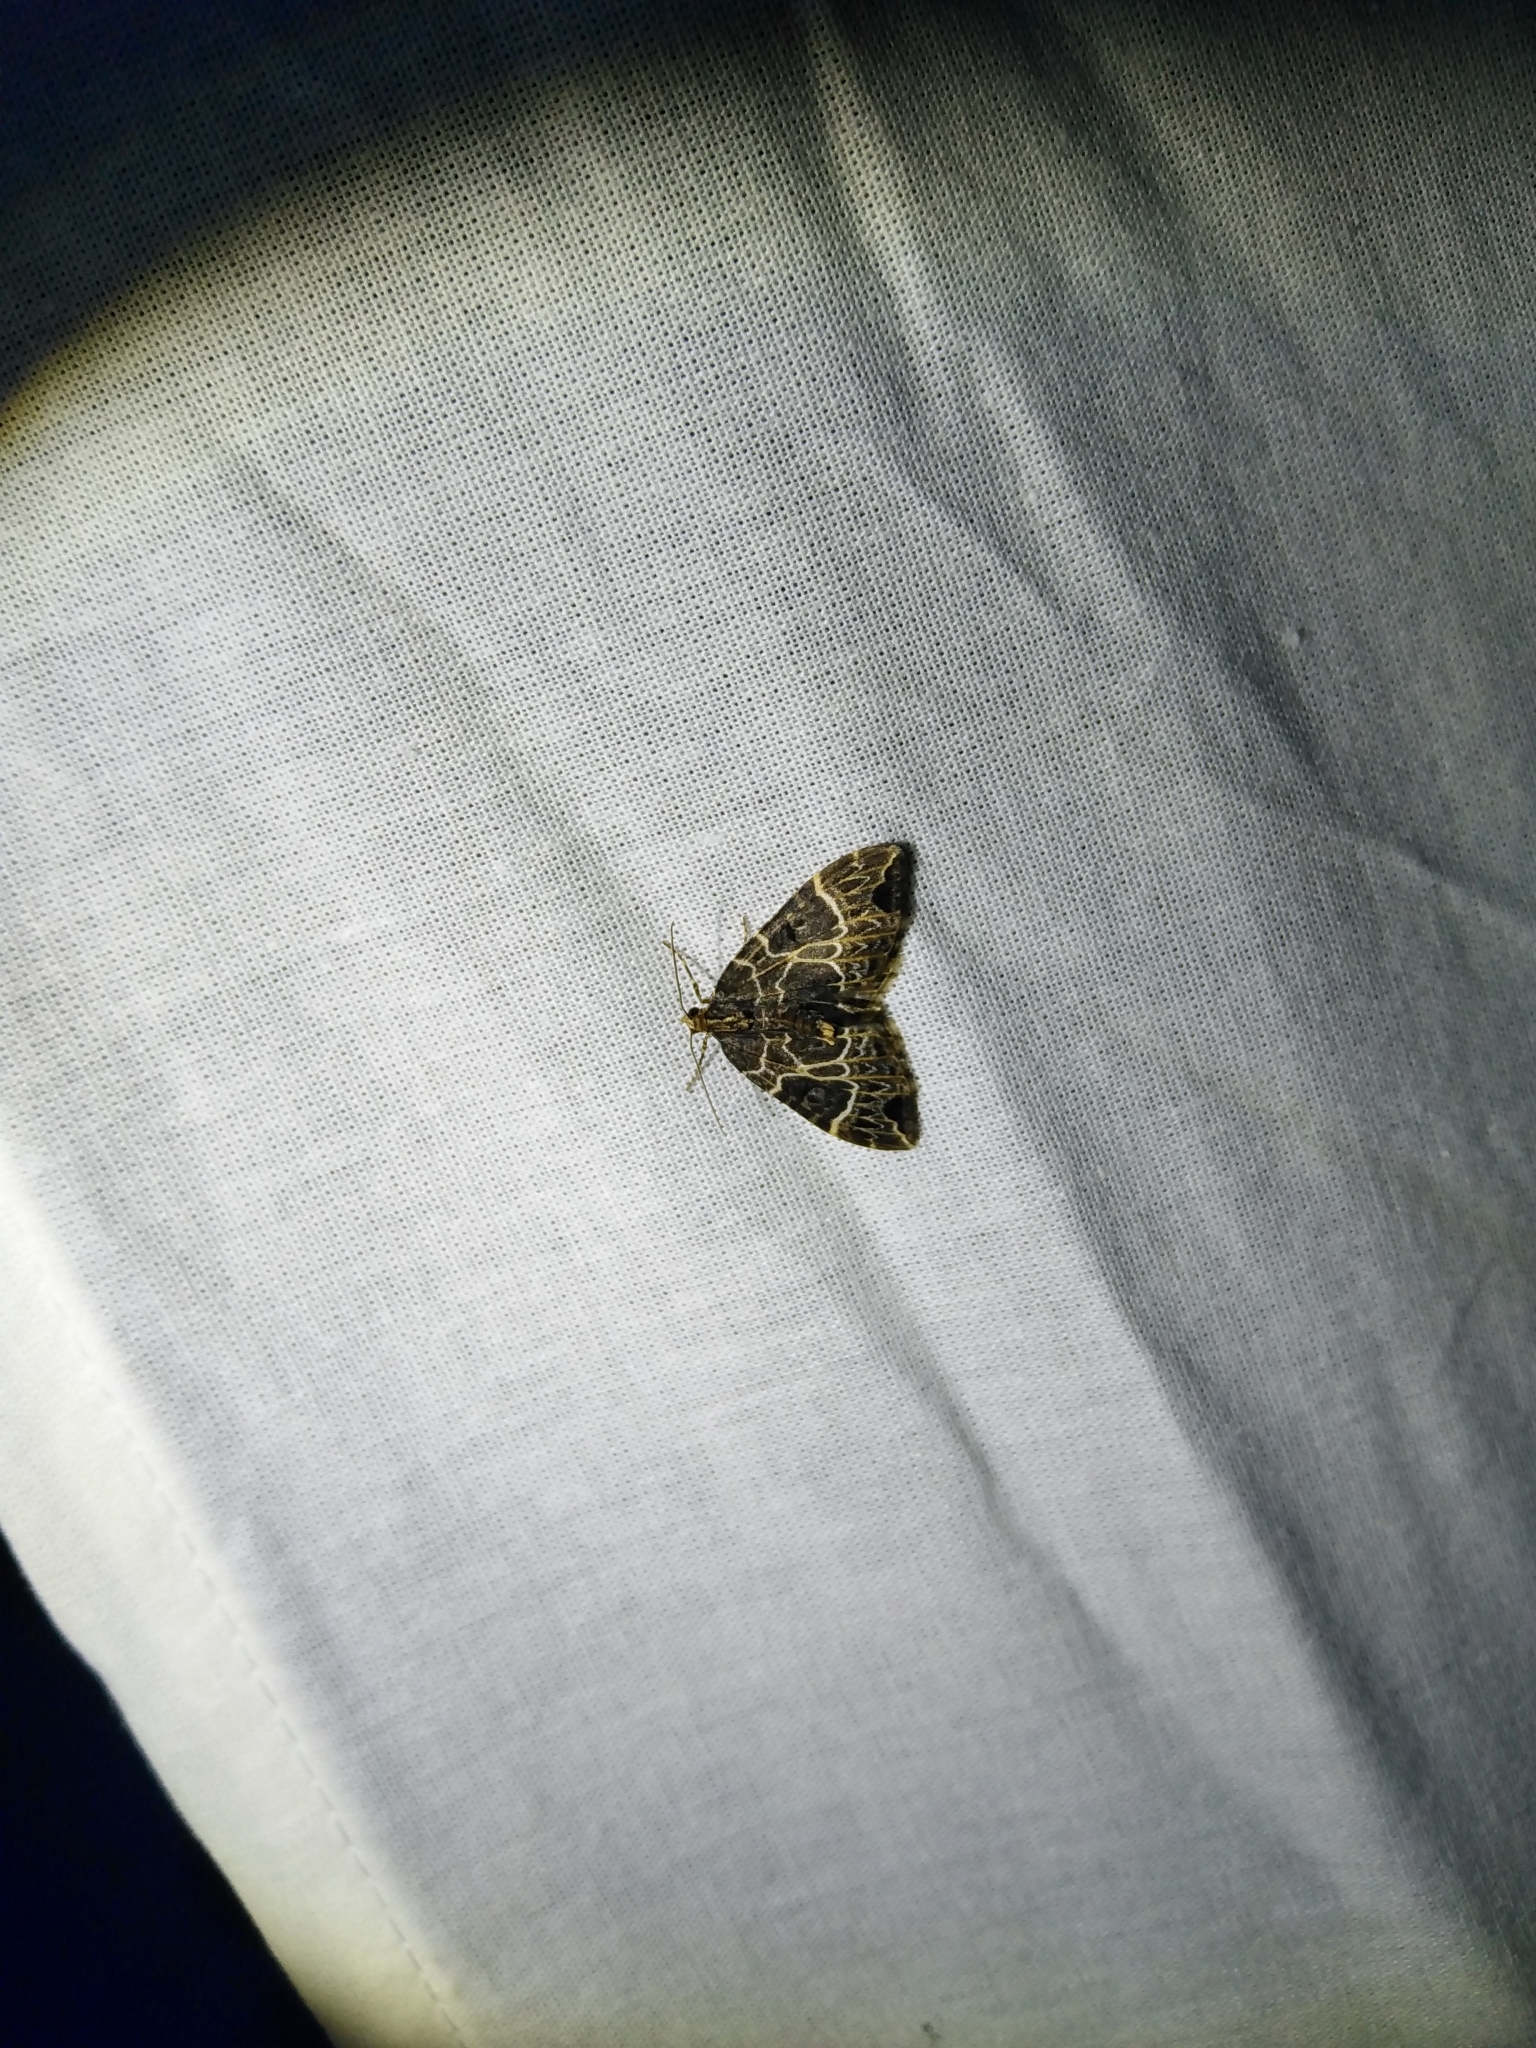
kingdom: Animalia
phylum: Arthropoda
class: Insecta
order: Lepidoptera
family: Geometridae
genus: Ecliptopera
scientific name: Ecliptopera silaceata
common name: Small phoenix
